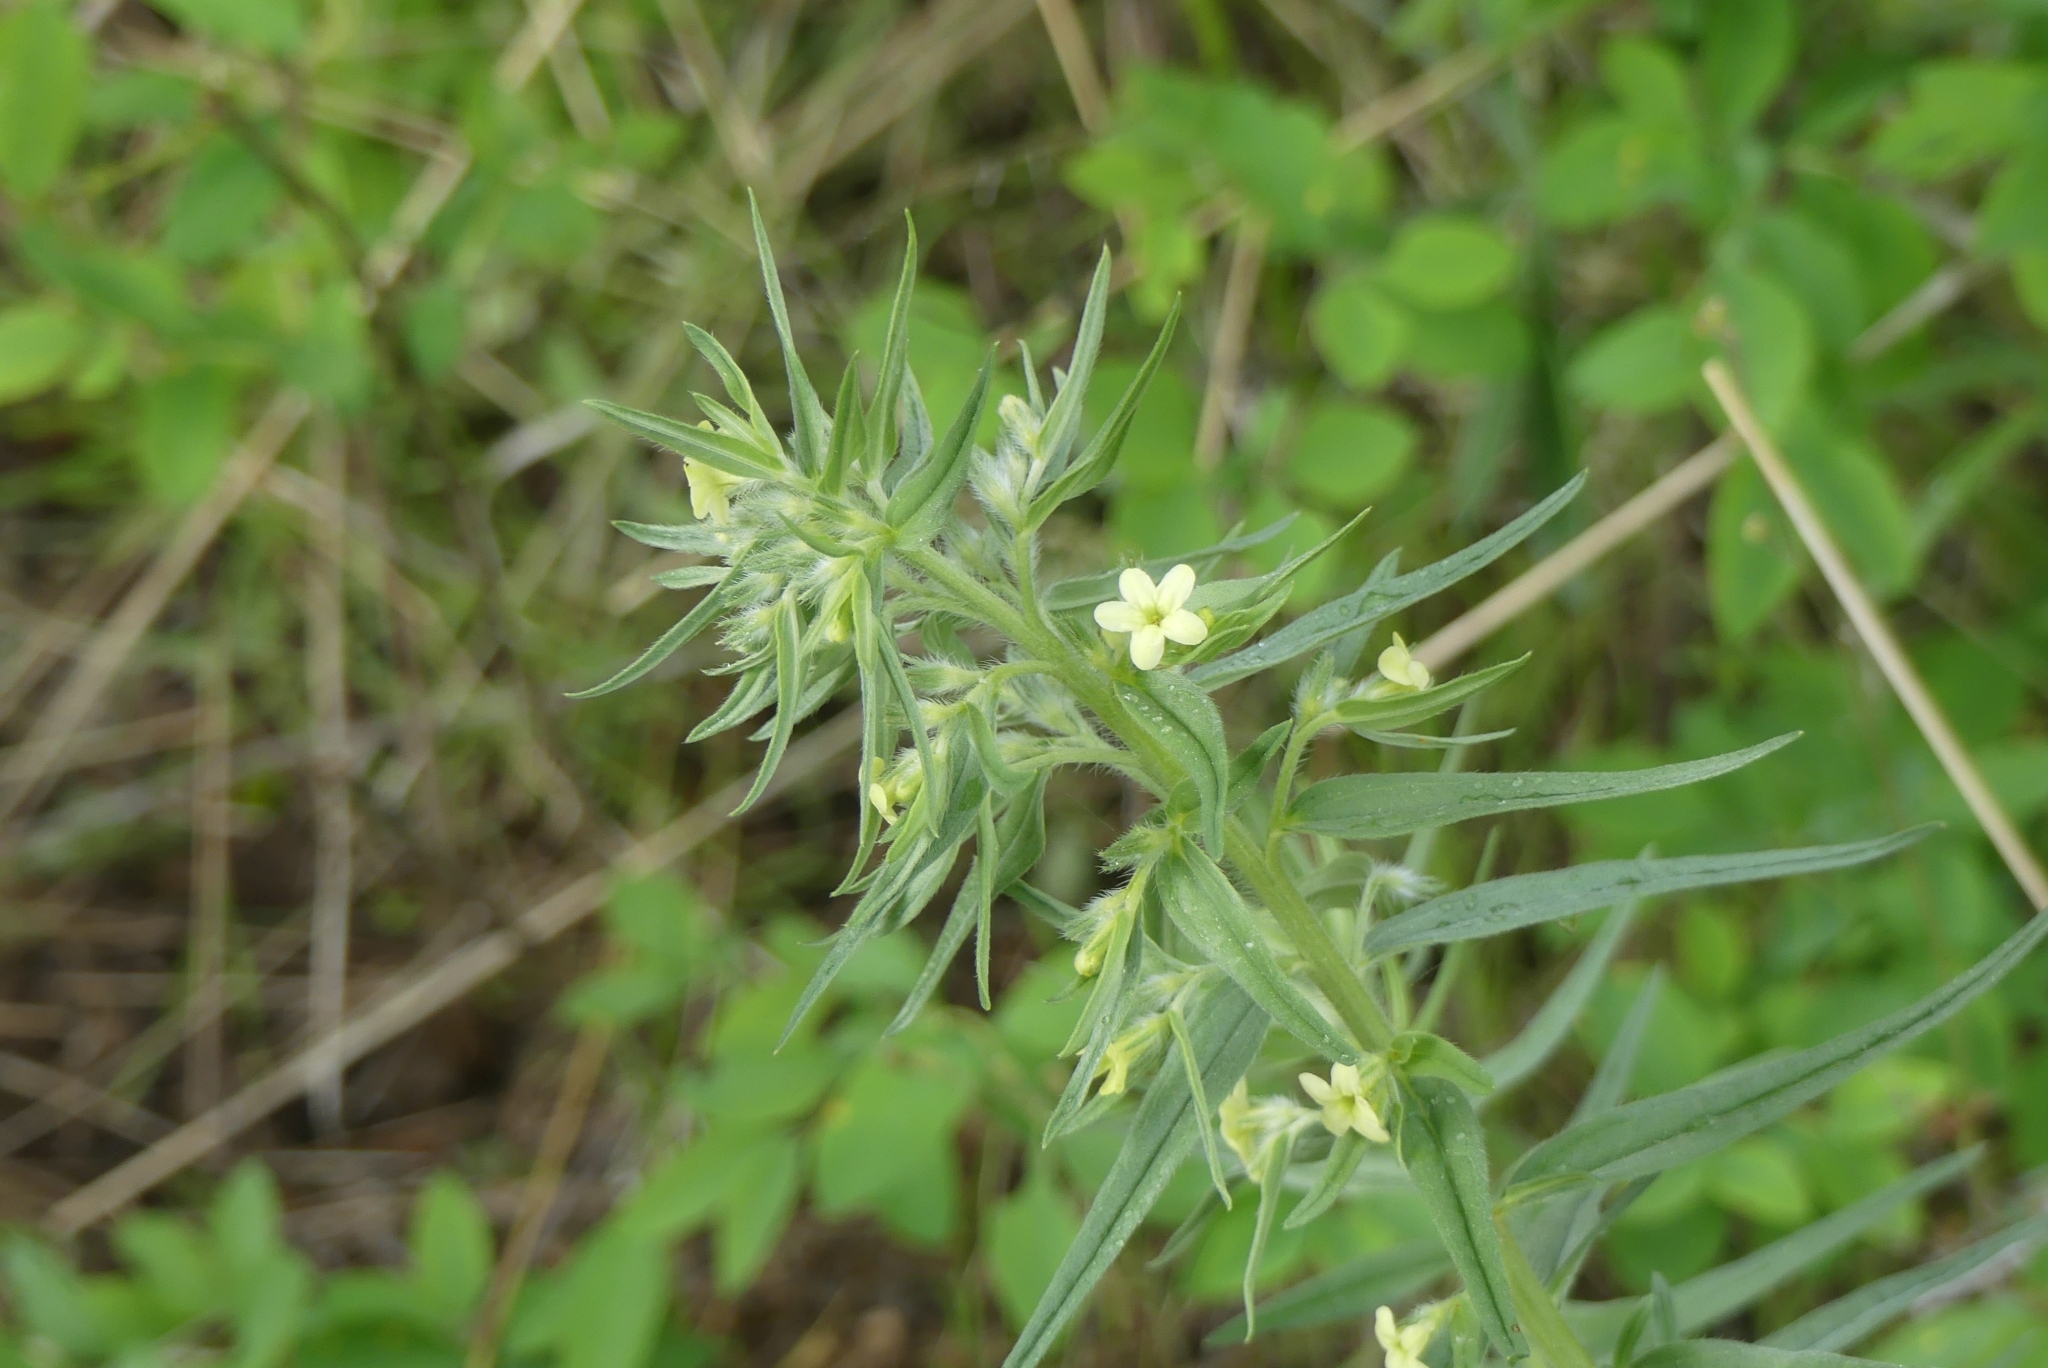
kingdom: Plantae
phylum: Tracheophyta
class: Magnoliopsida
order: Boraginales
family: Boraginaceae
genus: Lithospermum
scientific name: Lithospermum ruderale
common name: Western gromwell
